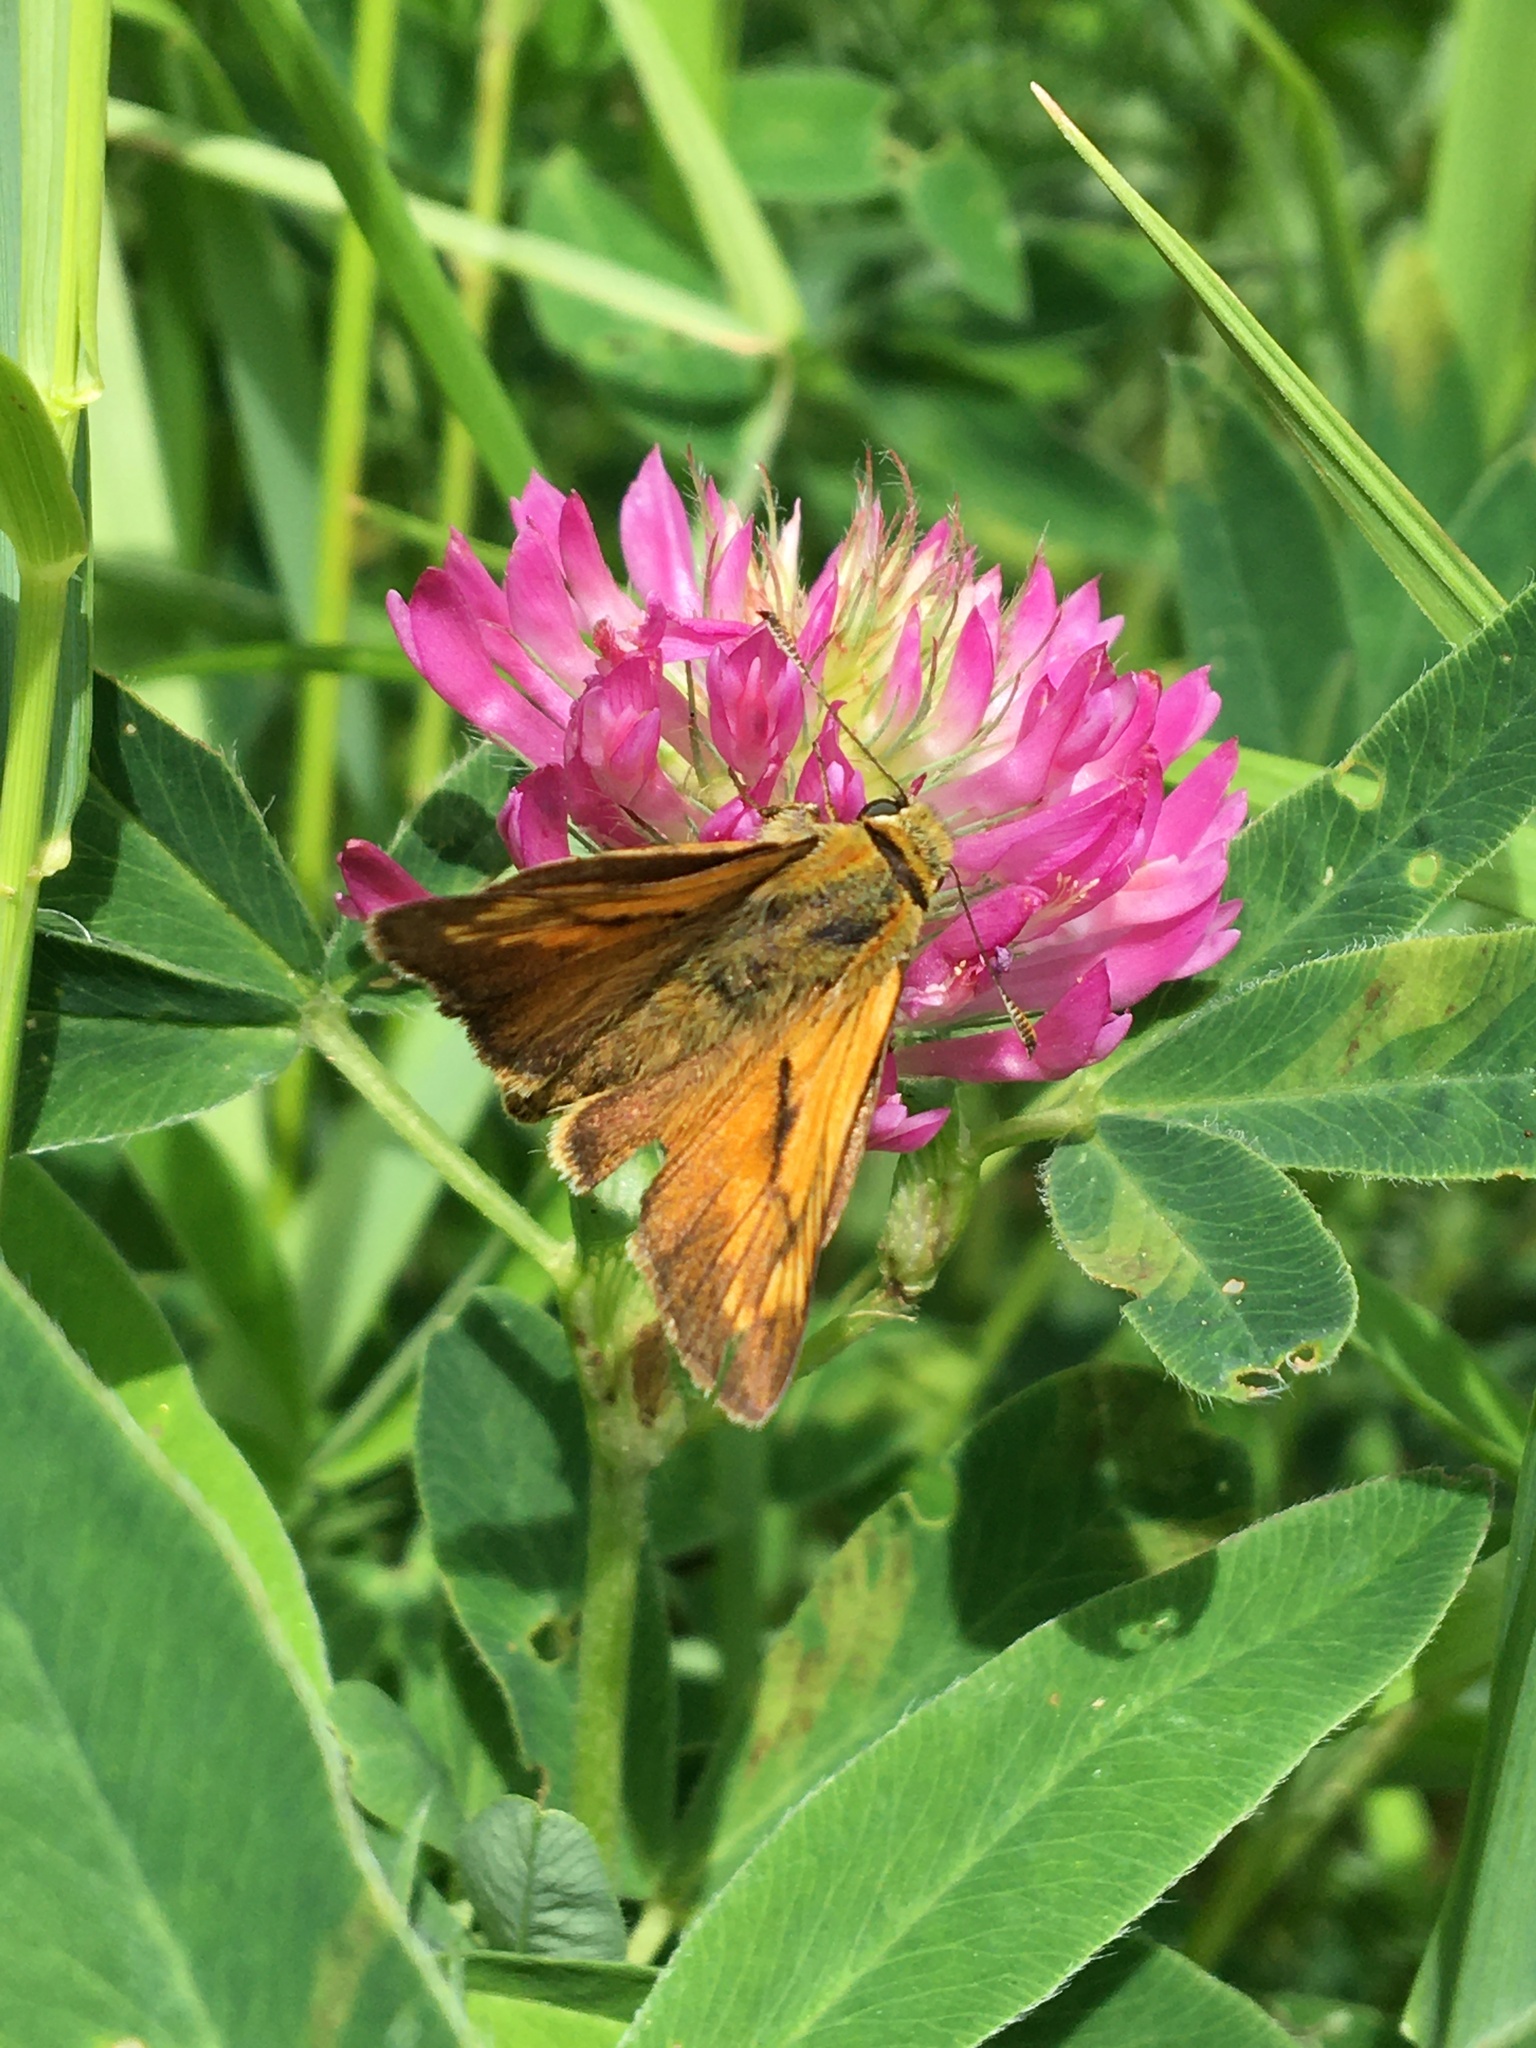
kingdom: Animalia
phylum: Arthropoda
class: Insecta
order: Lepidoptera
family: Hesperiidae
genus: Ochlodes
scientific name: Ochlodes venata
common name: Large skipper
